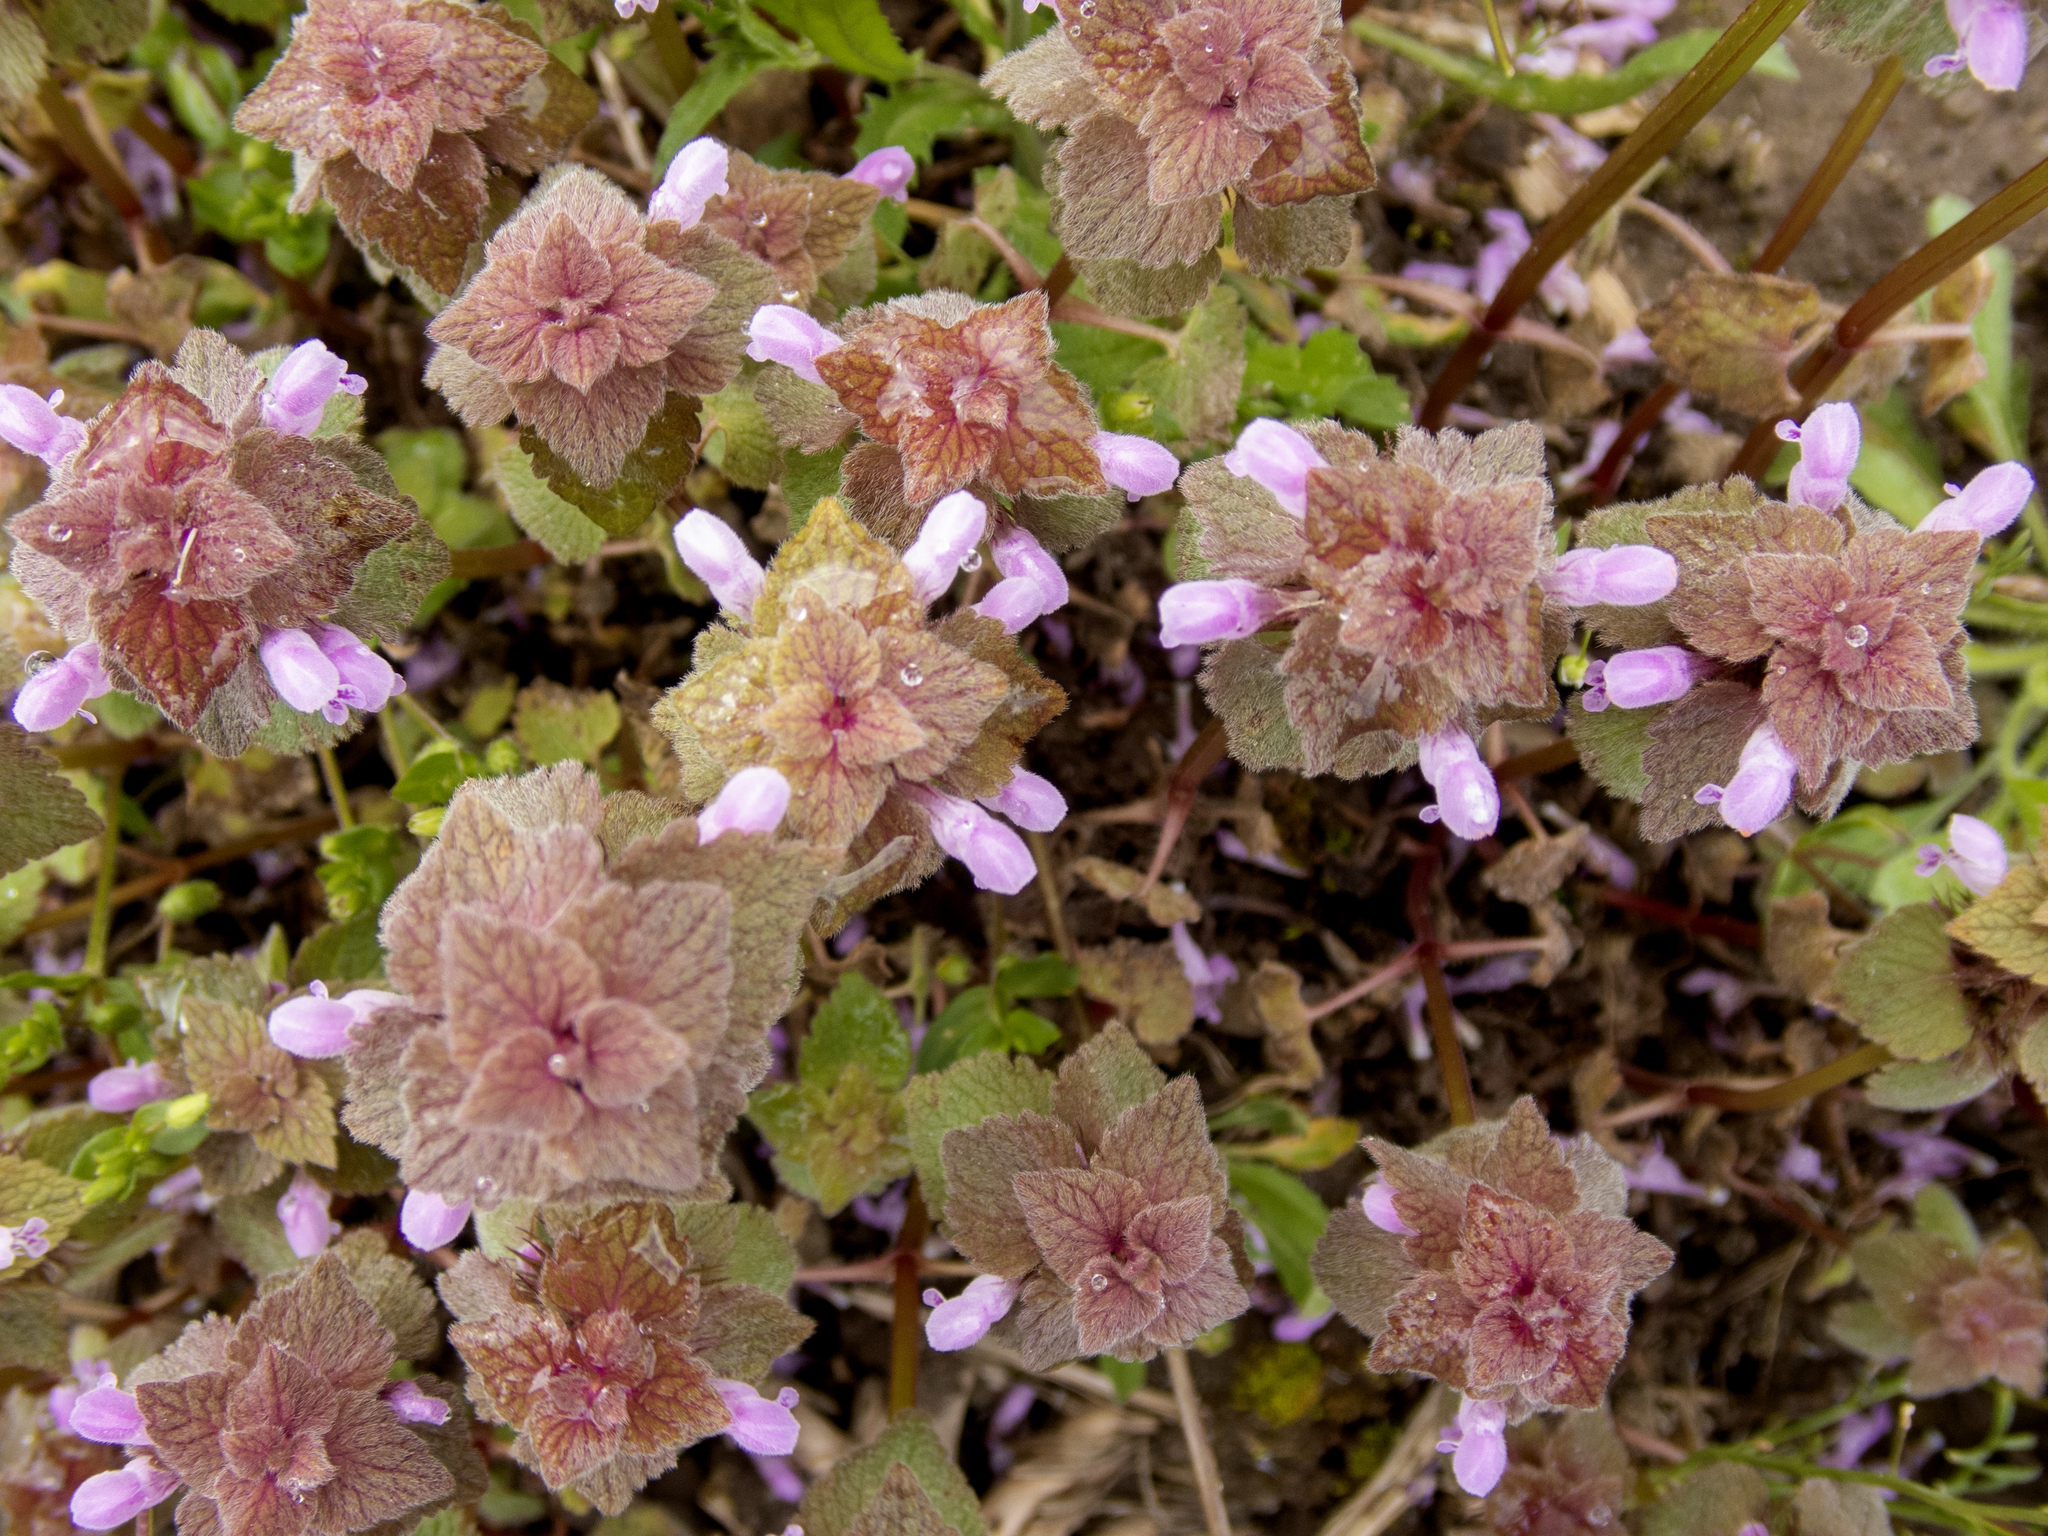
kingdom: Plantae
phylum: Tracheophyta
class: Magnoliopsida
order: Lamiales
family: Lamiaceae
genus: Lamium
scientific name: Lamium purpureum
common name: Red dead-nettle
